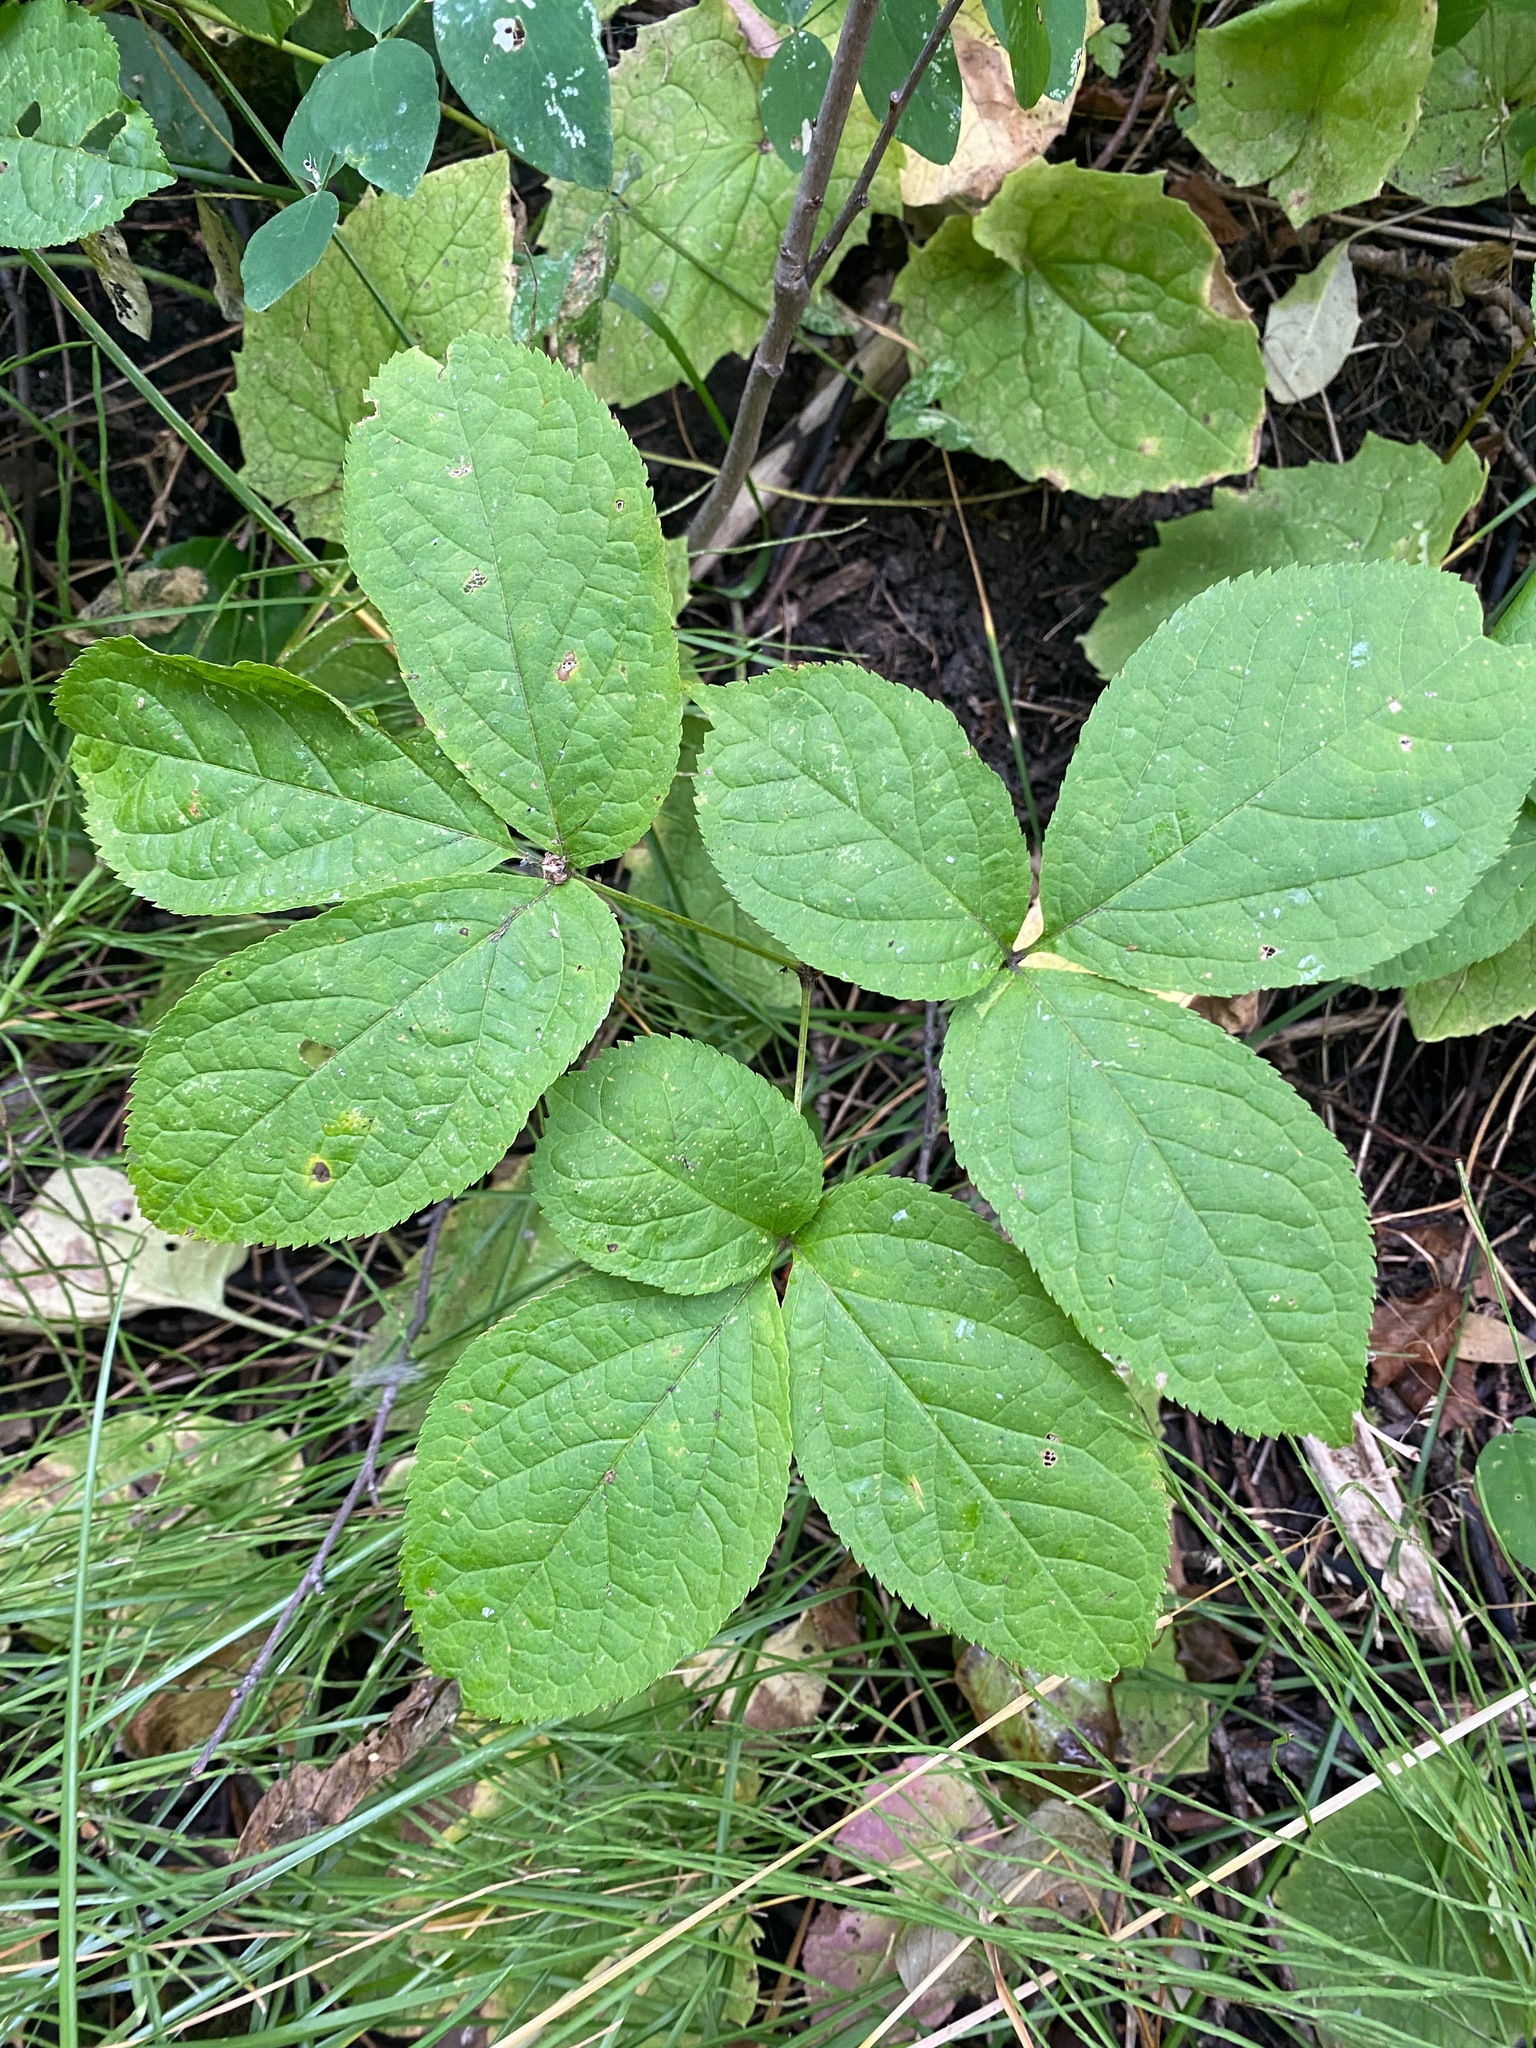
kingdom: Plantae
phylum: Tracheophyta
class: Magnoliopsida
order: Apiales
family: Araliaceae
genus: Aralia
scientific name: Aralia nudicaulis
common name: Wild sarsaparilla
